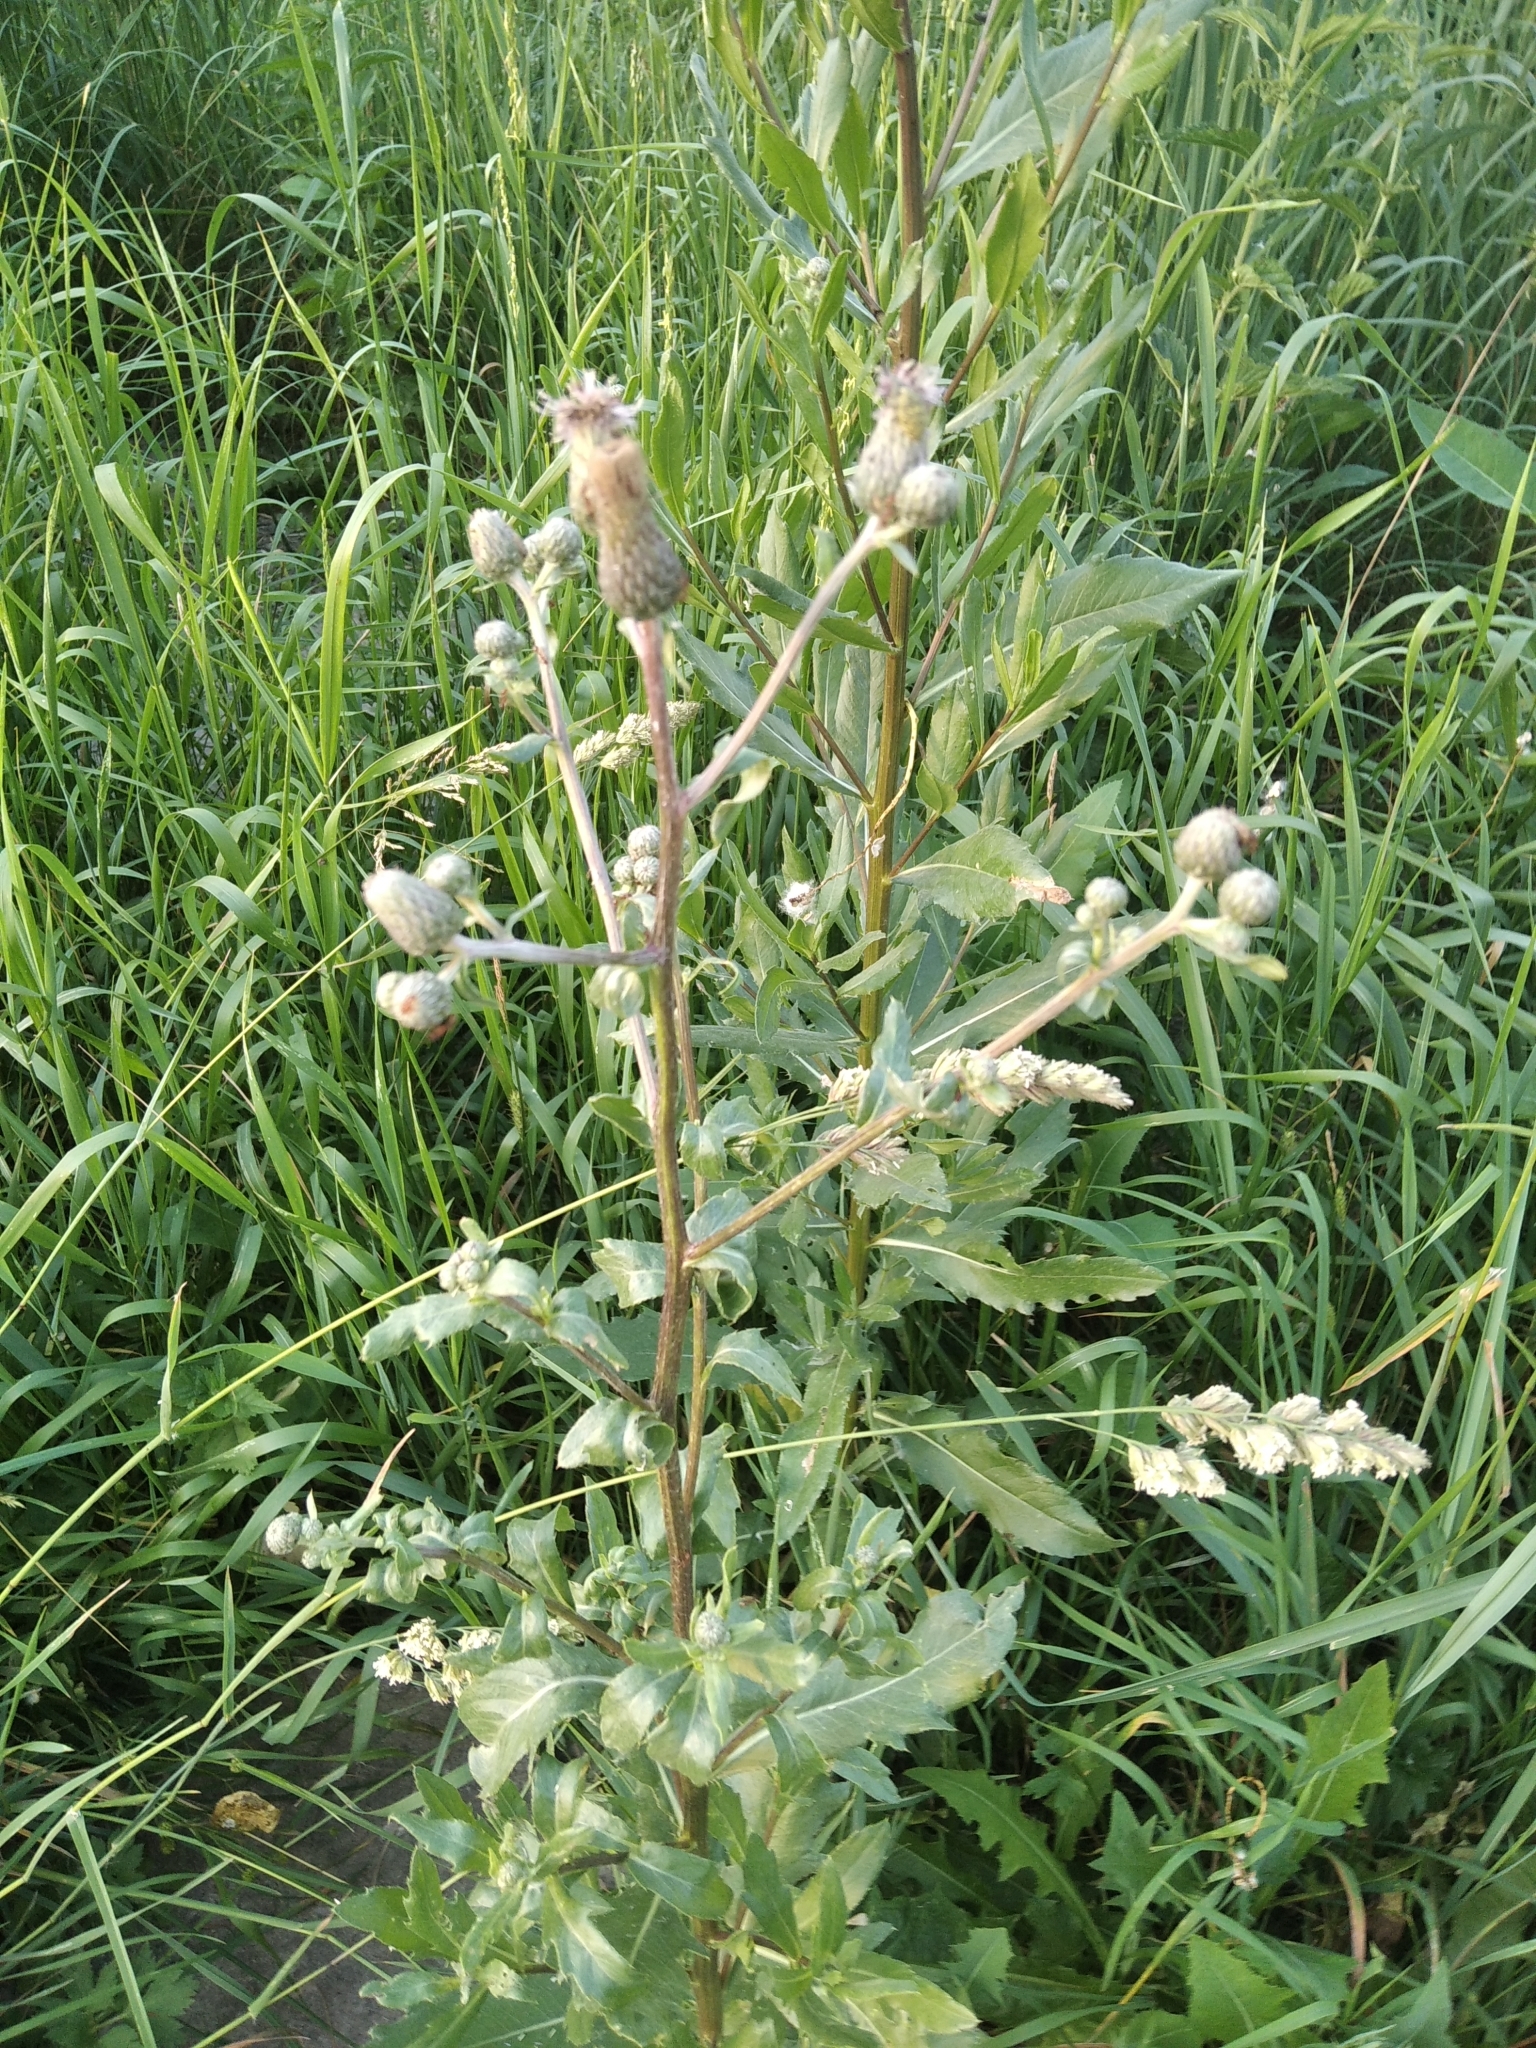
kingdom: Plantae
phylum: Tracheophyta
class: Magnoliopsida
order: Asterales
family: Asteraceae
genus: Cirsium
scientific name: Cirsium arvense
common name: Creeping thistle
